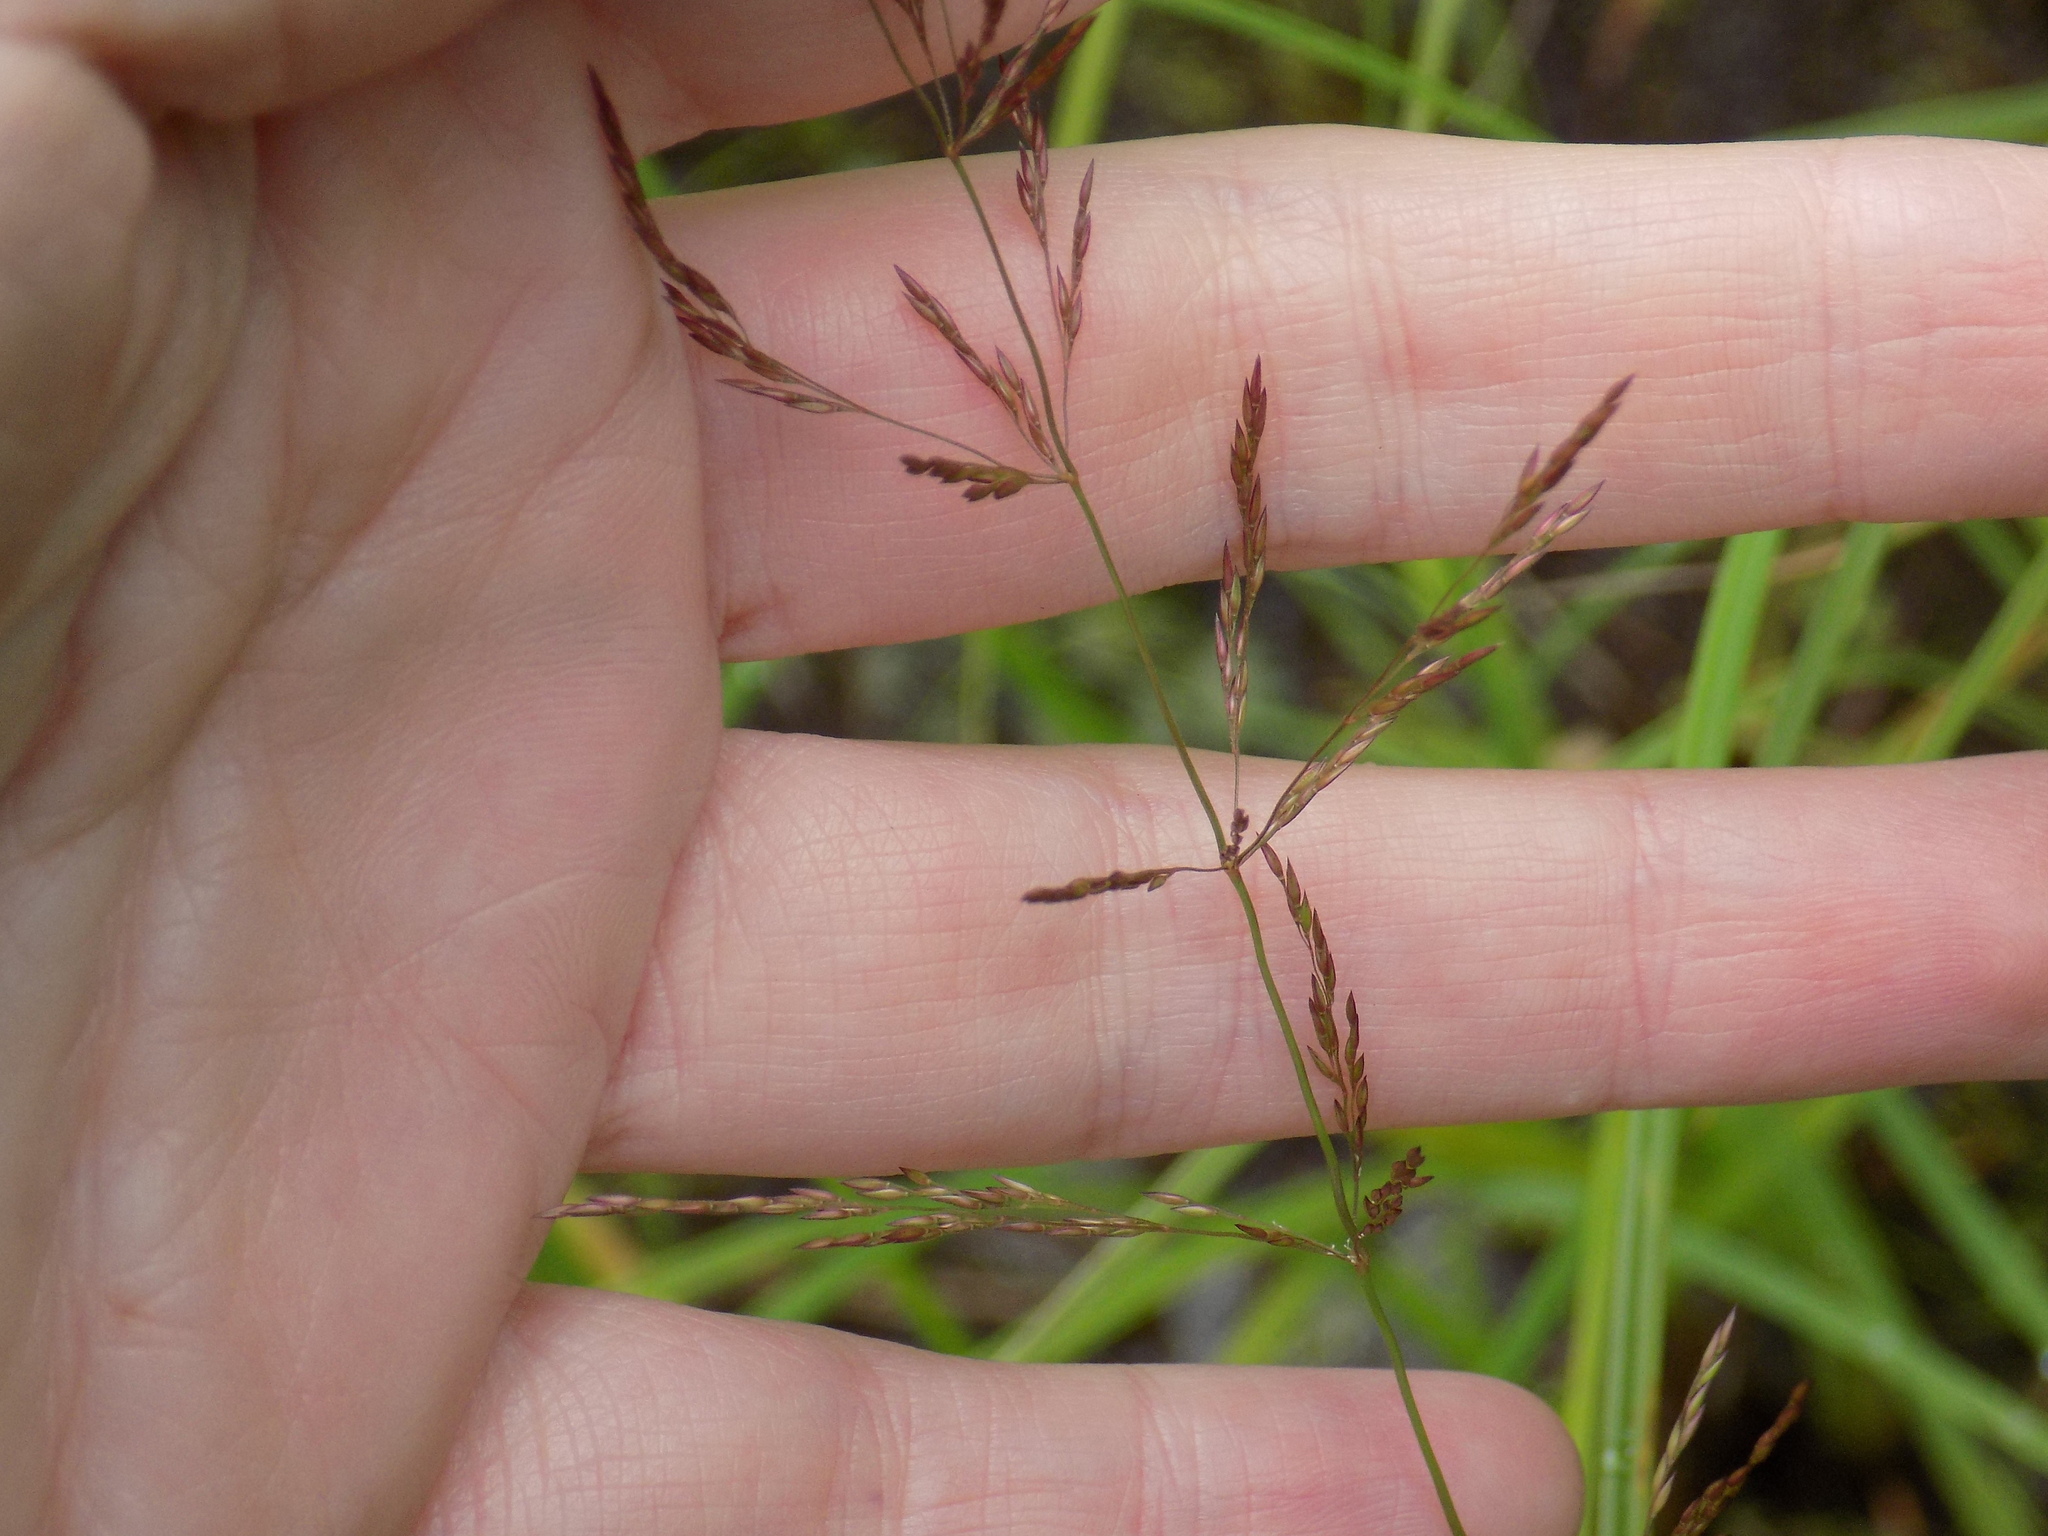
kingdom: Plantae
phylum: Tracheophyta
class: Liliopsida
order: Poales
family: Poaceae
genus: Agrostis
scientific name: Agrostis gigantea
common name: Black bent
